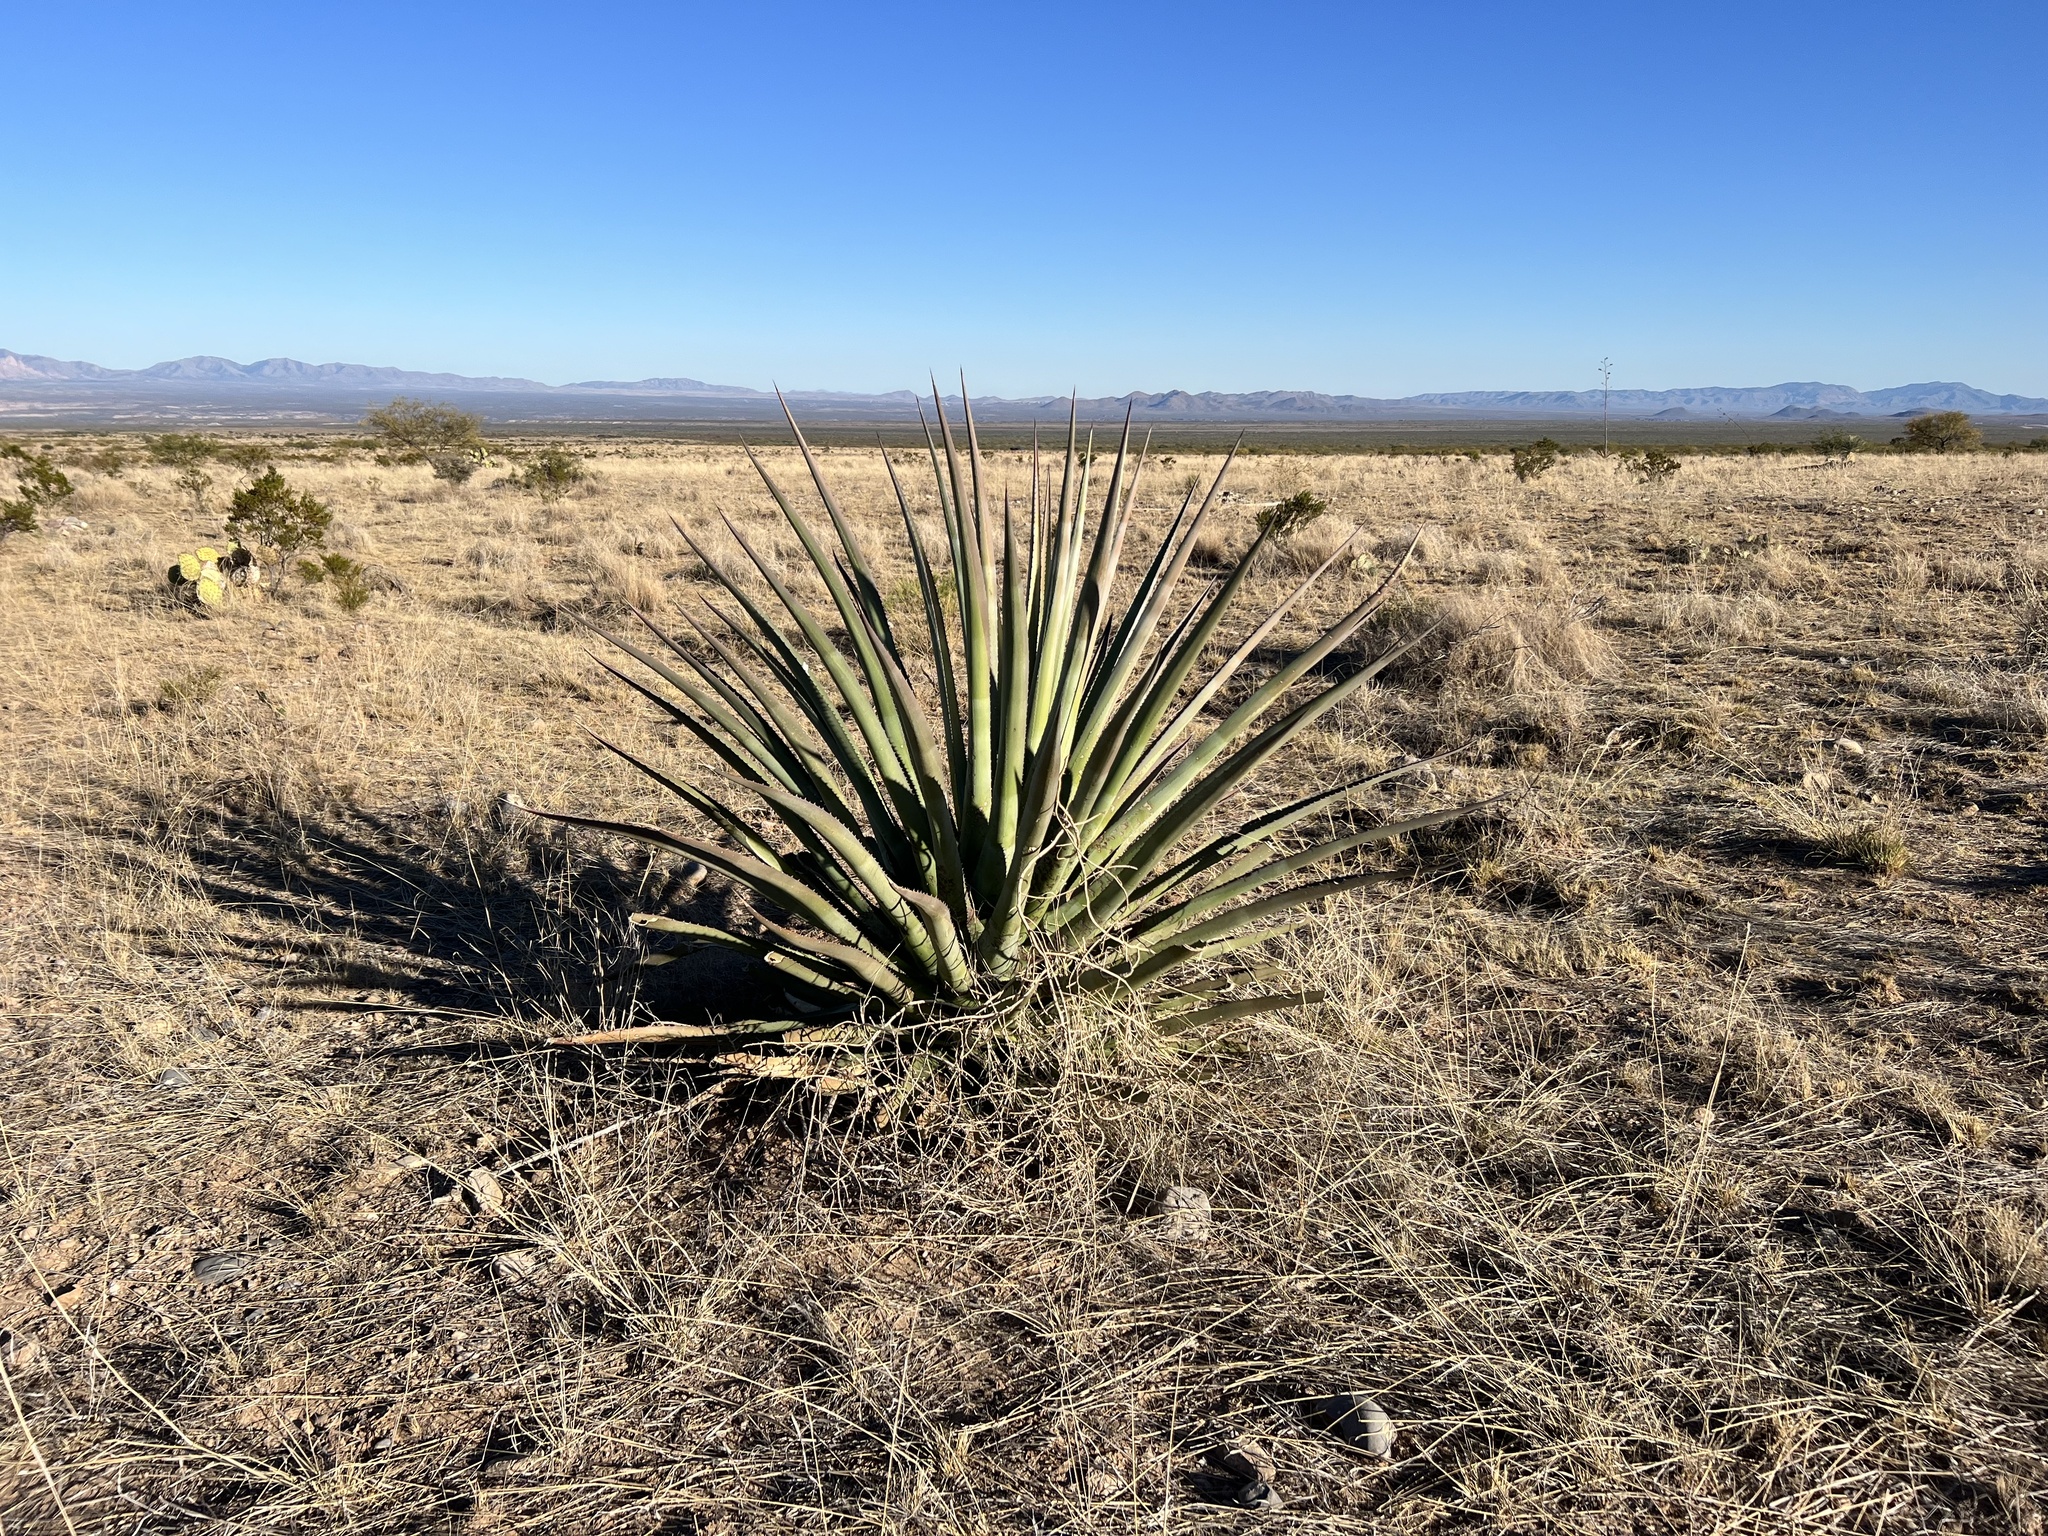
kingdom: Plantae
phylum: Tracheophyta
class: Liliopsida
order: Asparagales
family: Asparagaceae
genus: Agave
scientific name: Agave palmeri
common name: Palmer agave
